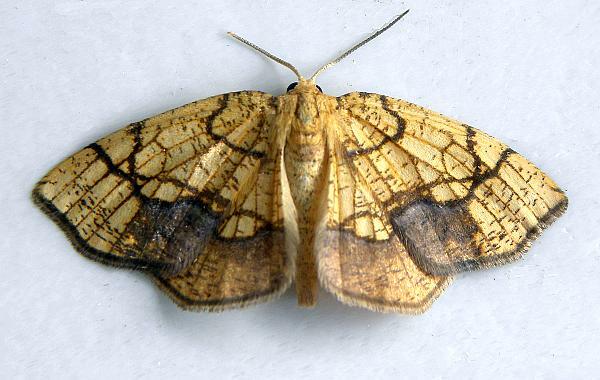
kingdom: Animalia
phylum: Arthropoda
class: Insecta
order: Lepidoptera
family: Geometridae
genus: Nematocampa
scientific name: Nematocampa resistaria
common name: Horned spanworm moth
